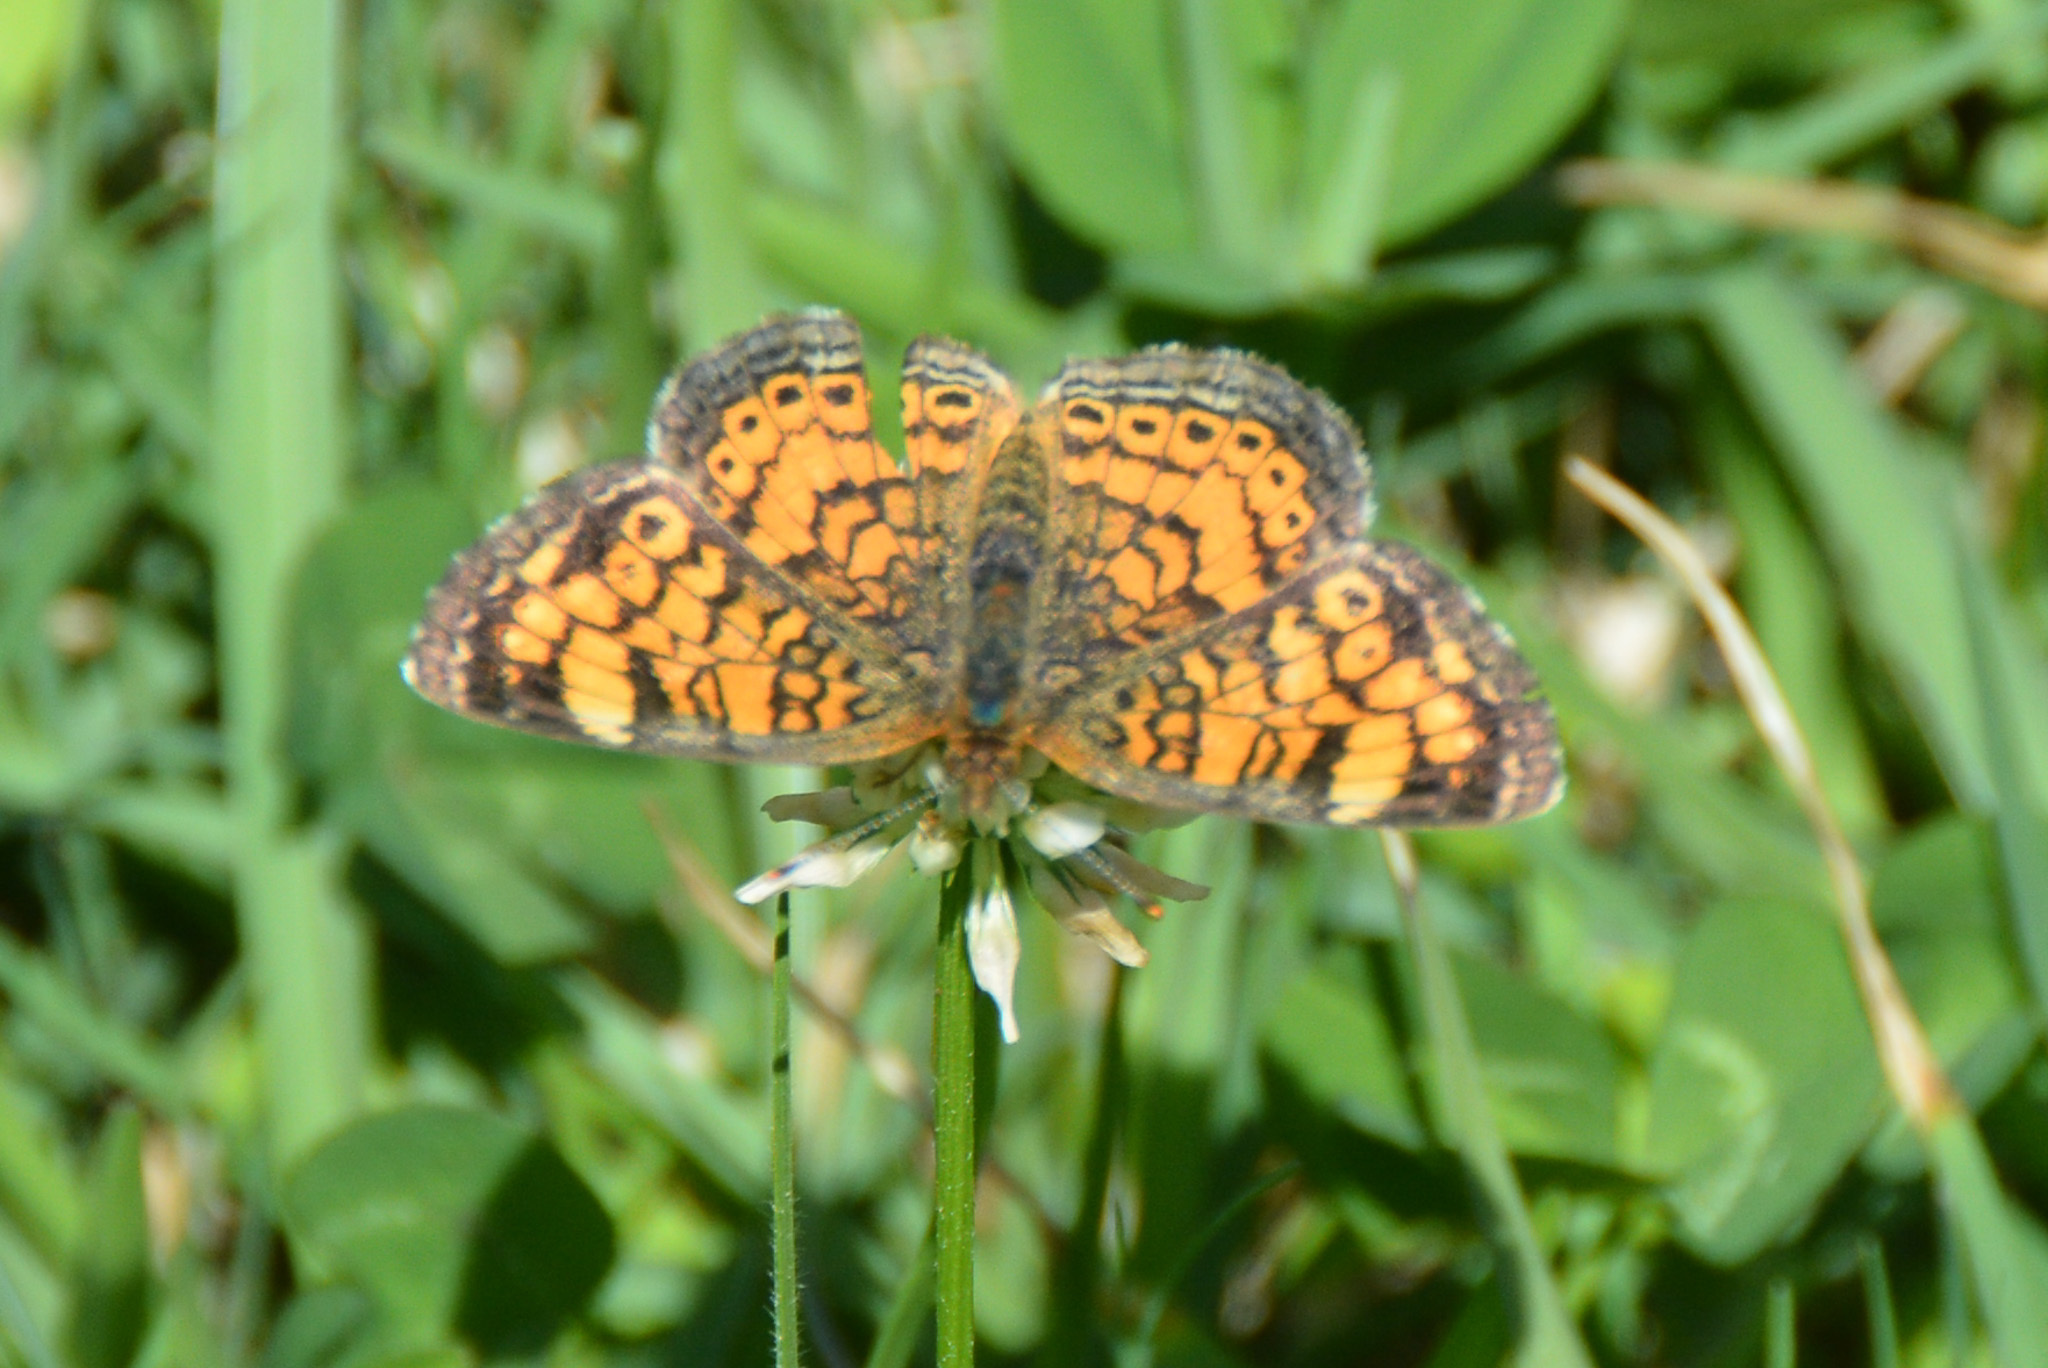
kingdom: Animalia
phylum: Arthropoda
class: Insecta
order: Lepidoptera
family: Nymphalidae
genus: Phyciodes
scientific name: Phyciodes tharos
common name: Pearl crescent
